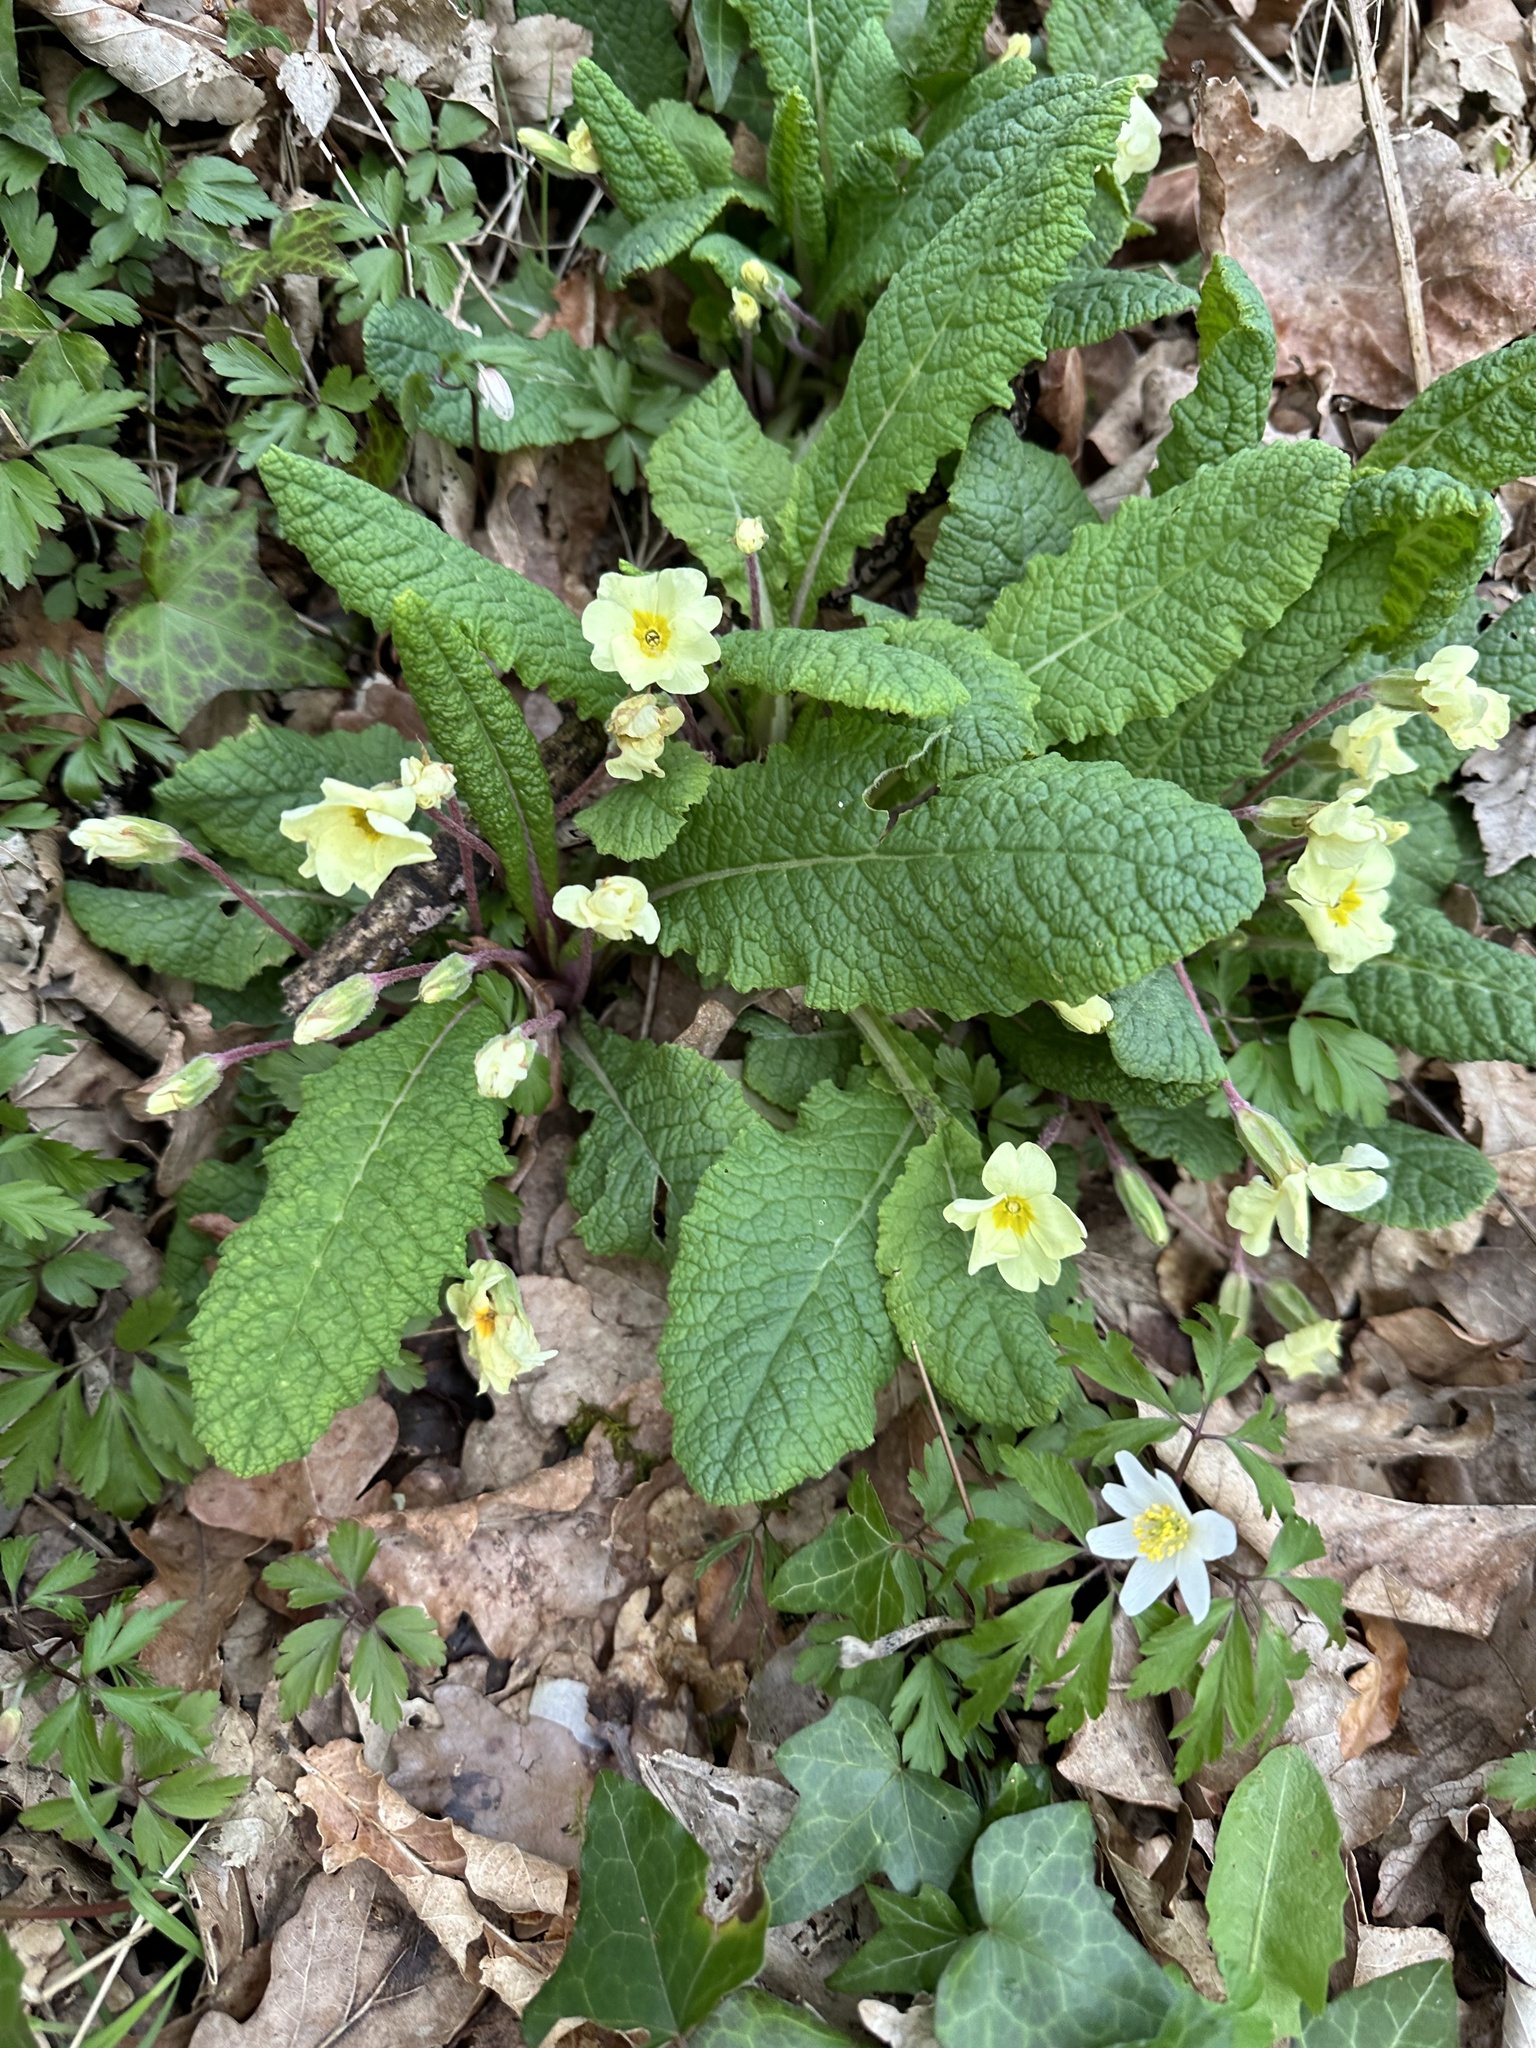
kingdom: Plantae
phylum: Tracheophyta
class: Magnoliopsida
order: Ericales
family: Primulaceae
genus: Primula
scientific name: Primula vulgaris
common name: Primrose
